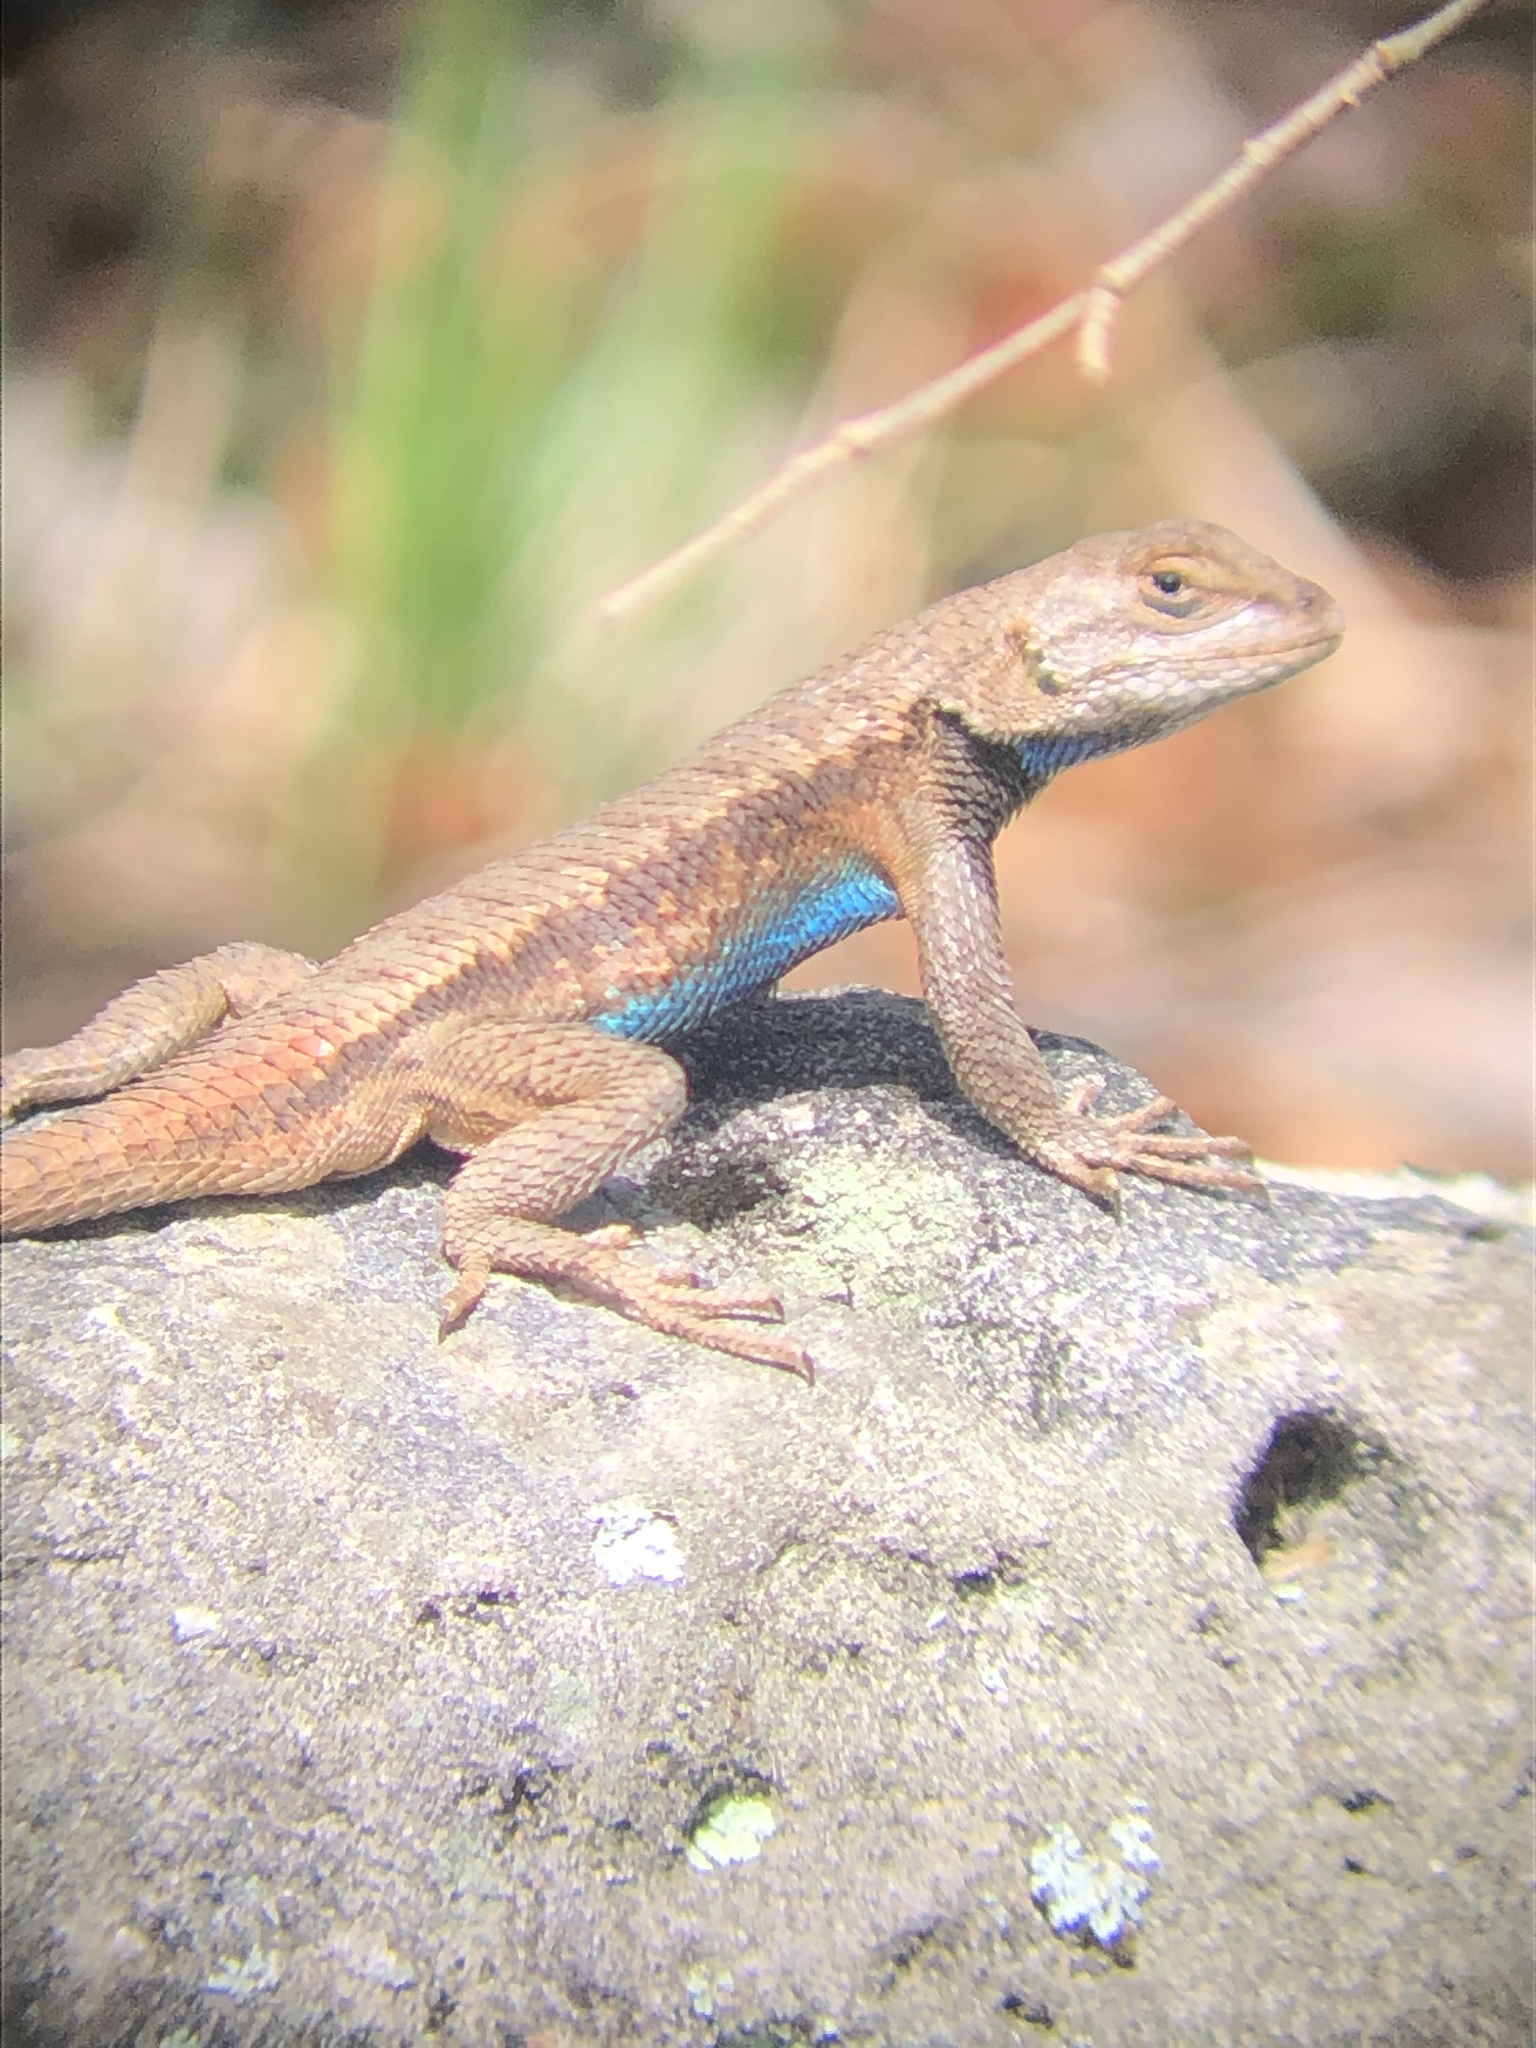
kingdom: Animalia
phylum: Chordata
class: Squamata
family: Phrynosomatidae
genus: Sceloporus
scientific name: Sceloporus consobrinus
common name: Southern prairie lizard
